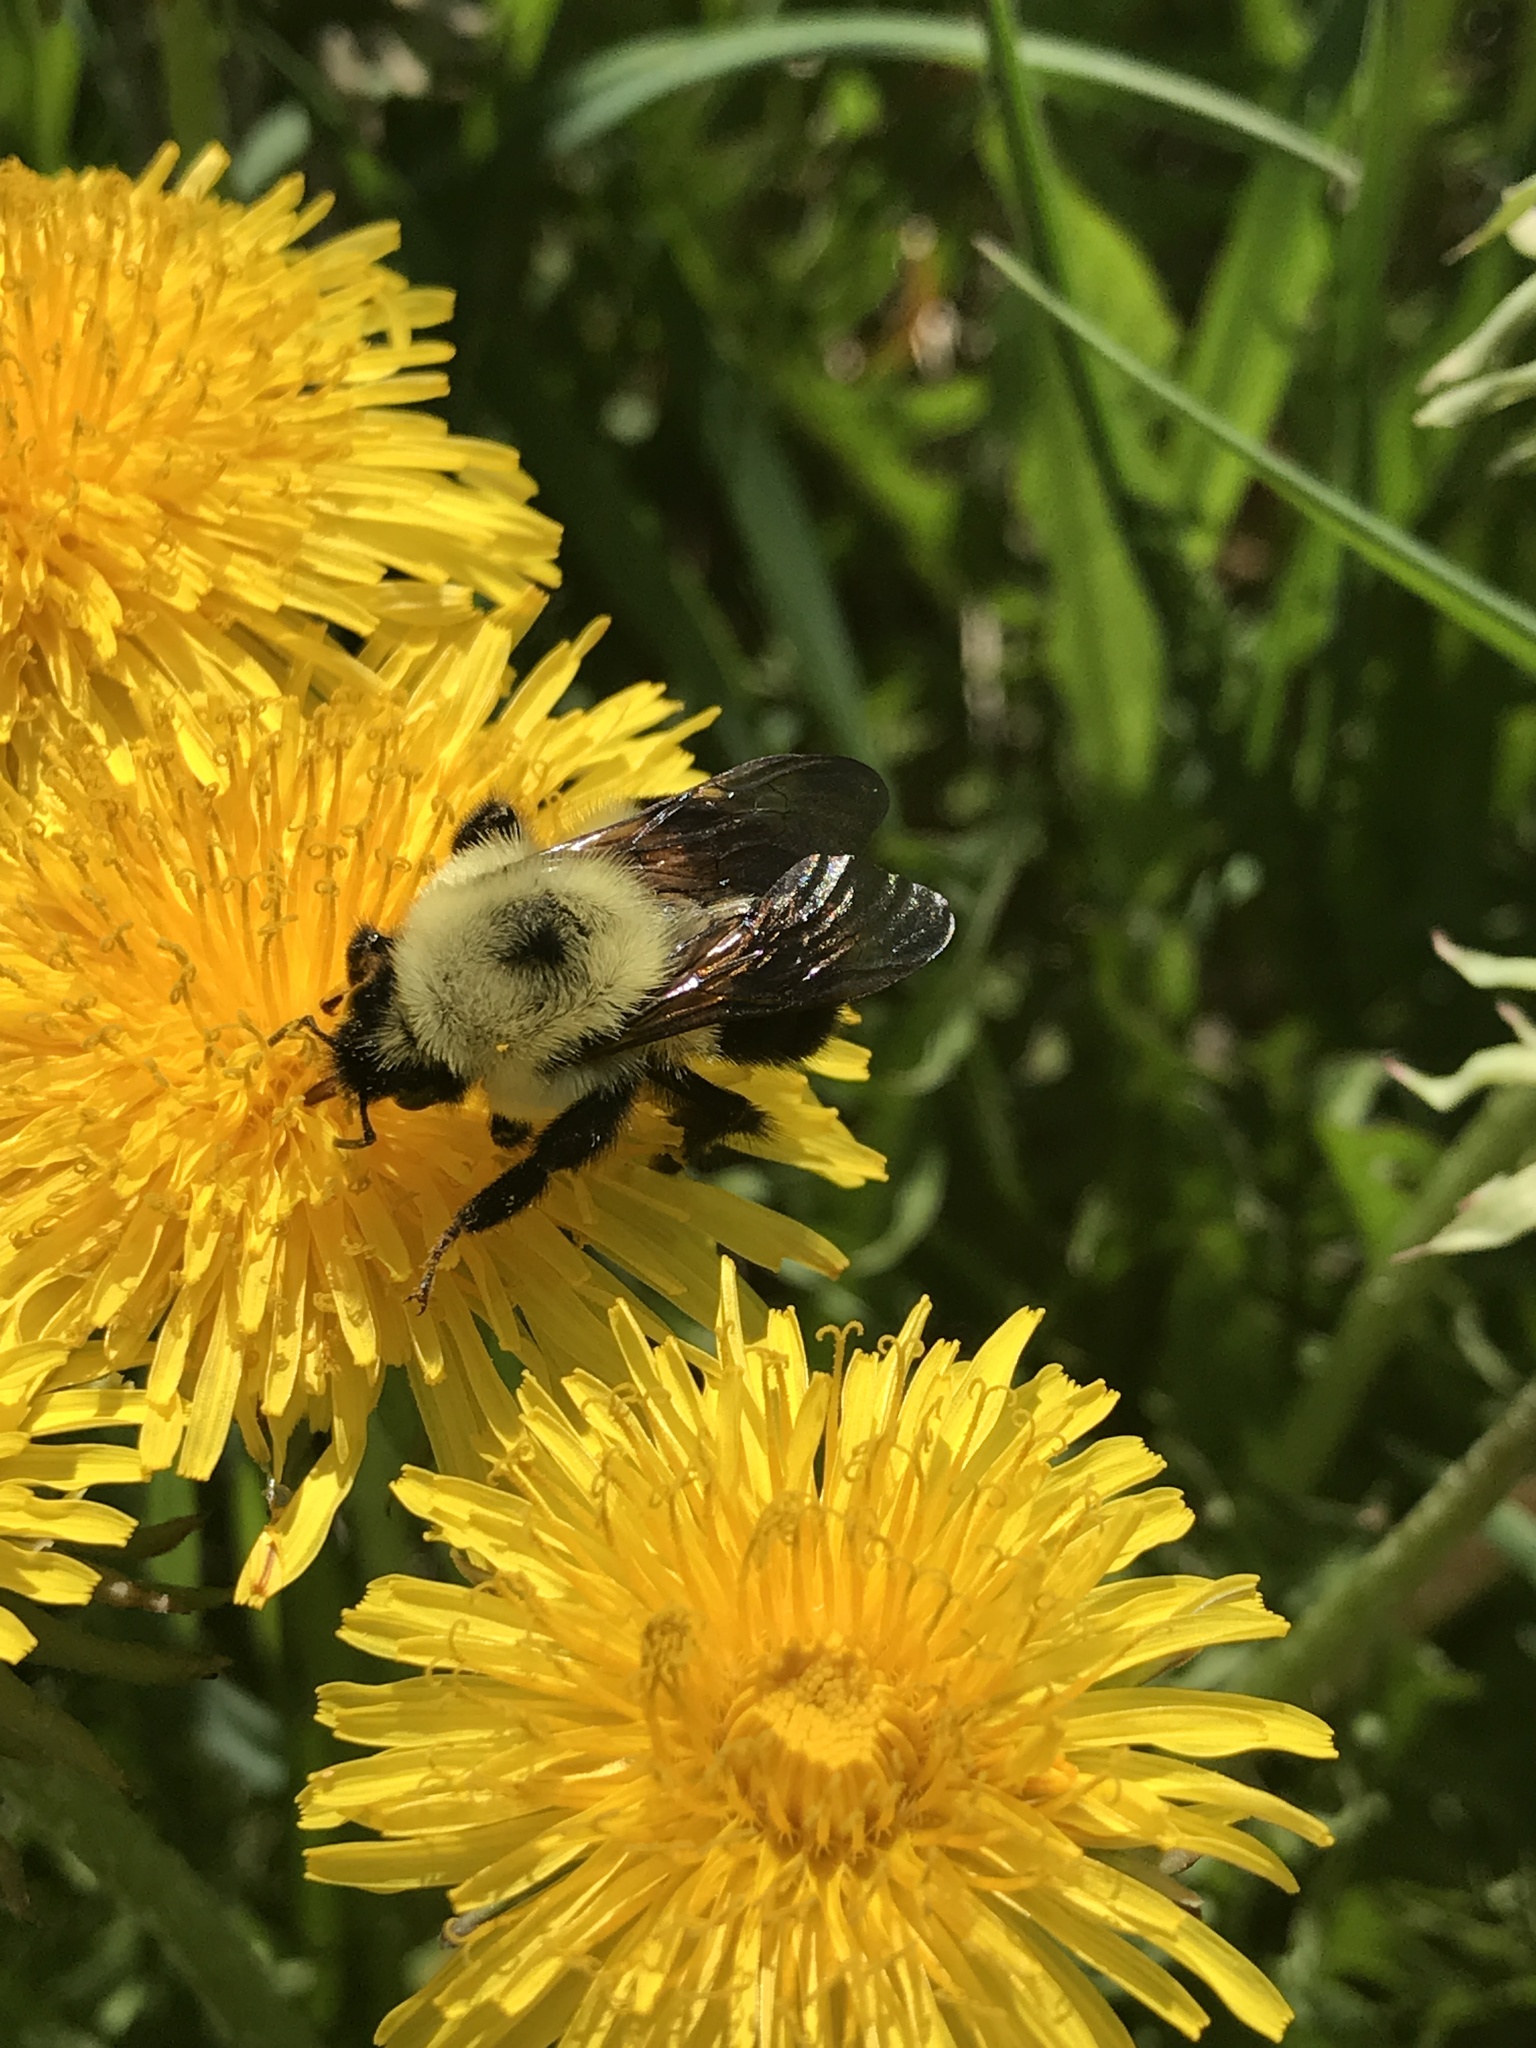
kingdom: Animalia
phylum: Arthropoda
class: Insecta
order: Hymenoptera
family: Apidae
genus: Bombus
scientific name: Bombus bimaculatus
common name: Two-spotted bumble bee
